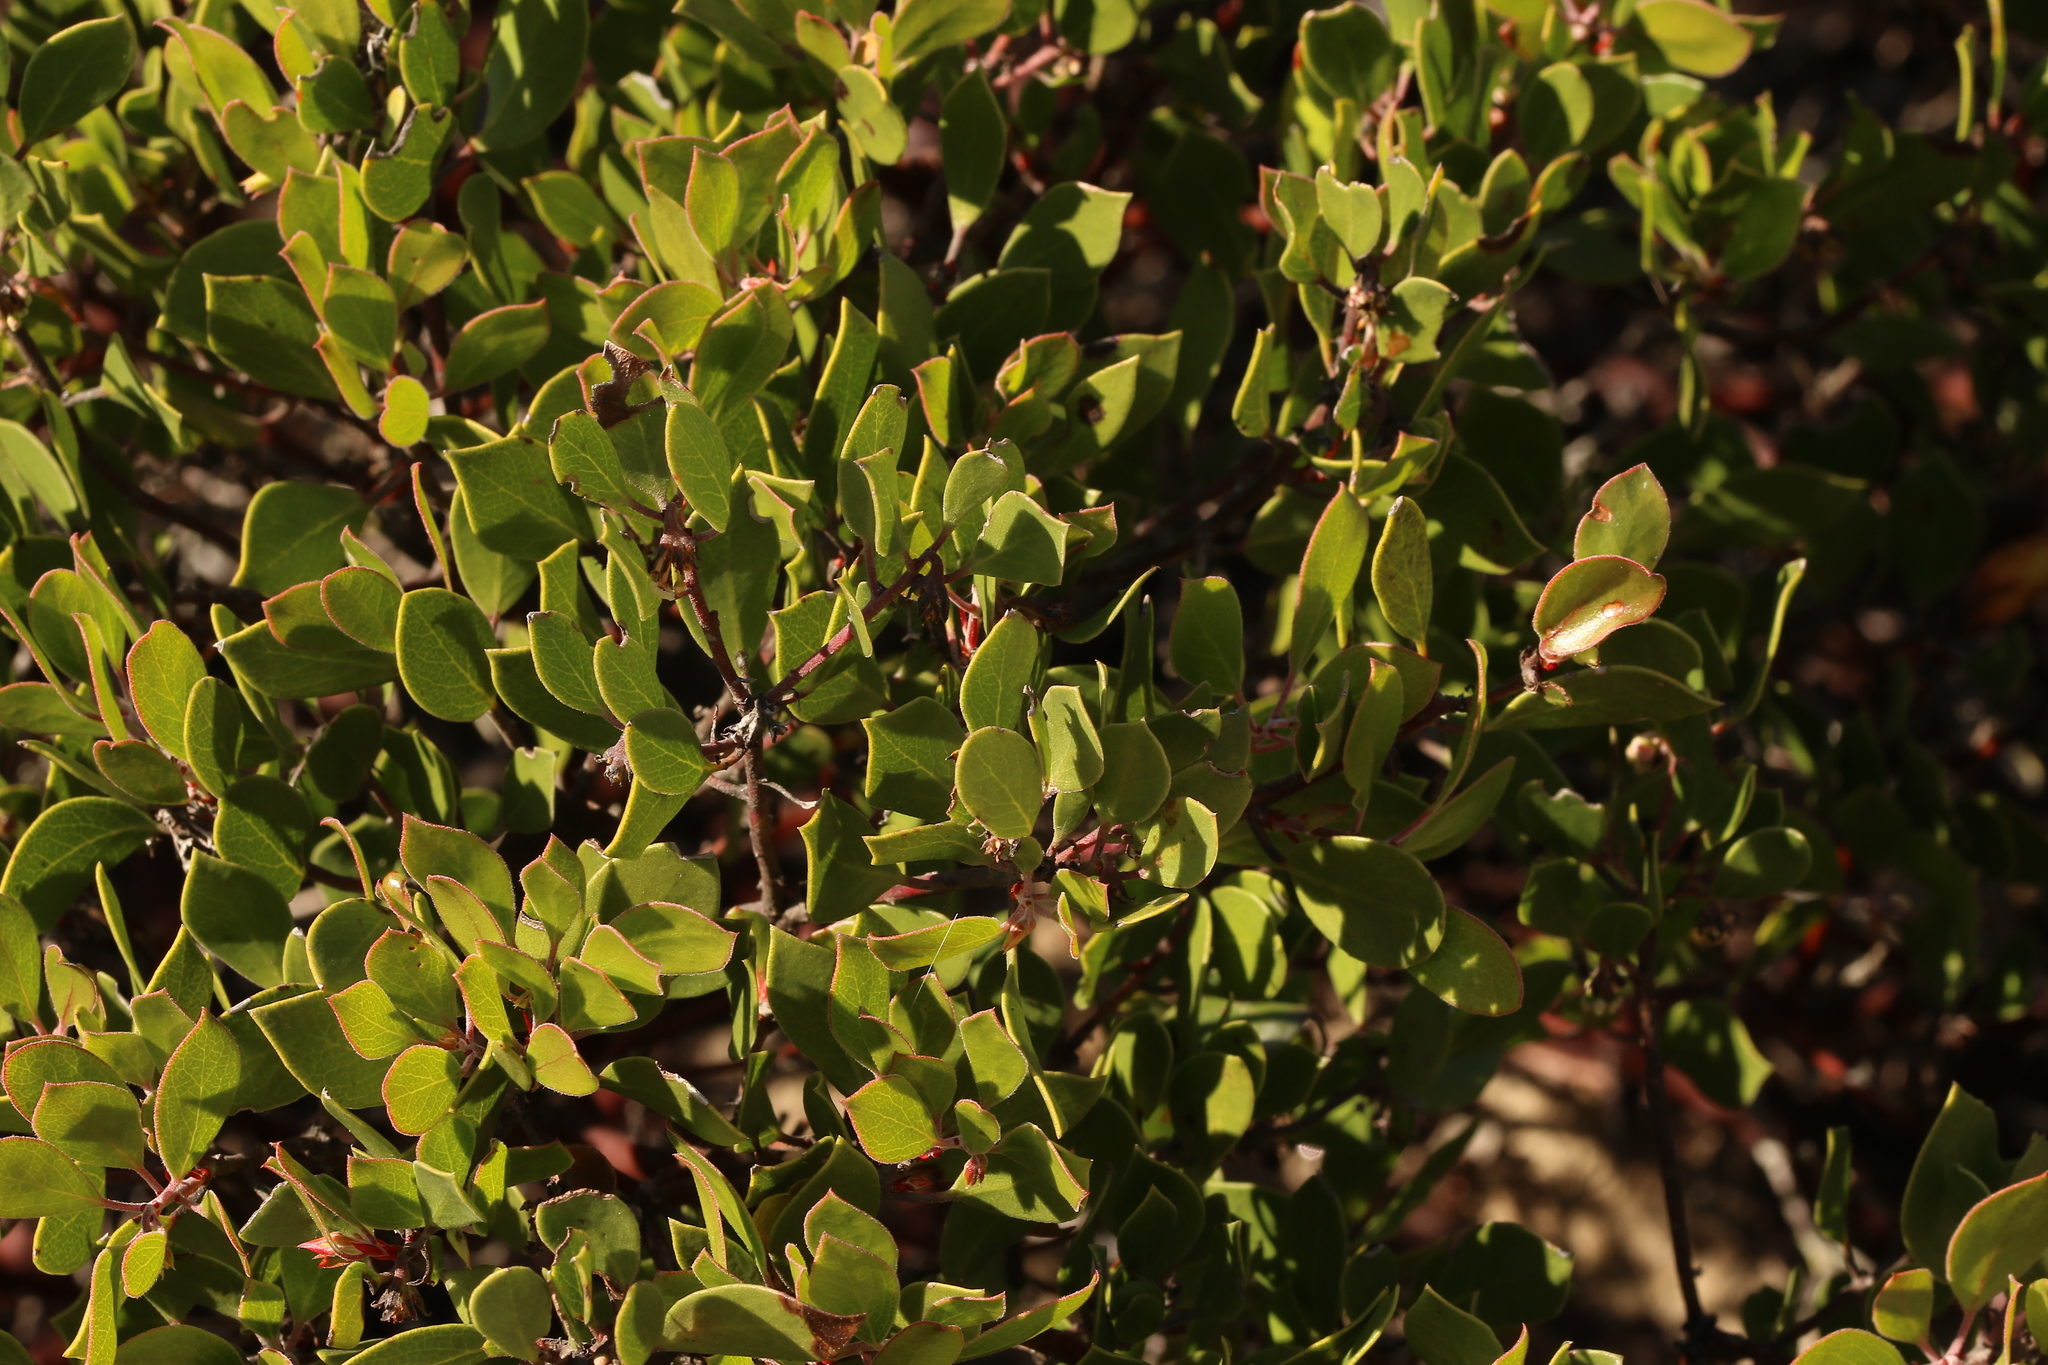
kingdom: Plantae
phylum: Tracheophyta
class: Magnoliopsida
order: Ericales
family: Ericaceae
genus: Arctostaphylos
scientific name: Arctostaphylos hookeri
